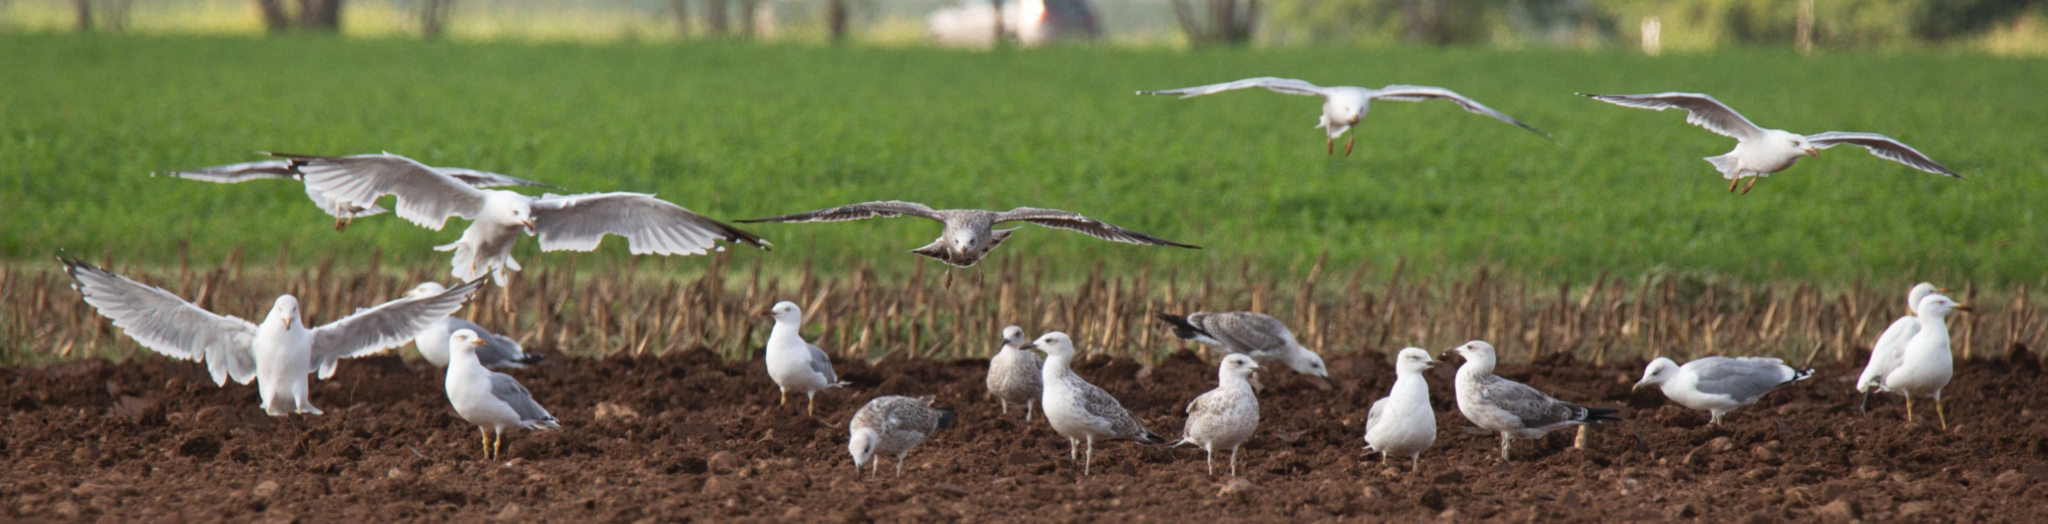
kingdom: Animalia
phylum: Chordata
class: Aves
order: Charadriiformes
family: Laridae
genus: Larus
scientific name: Larus michahellis
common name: Yellow-legged gull
